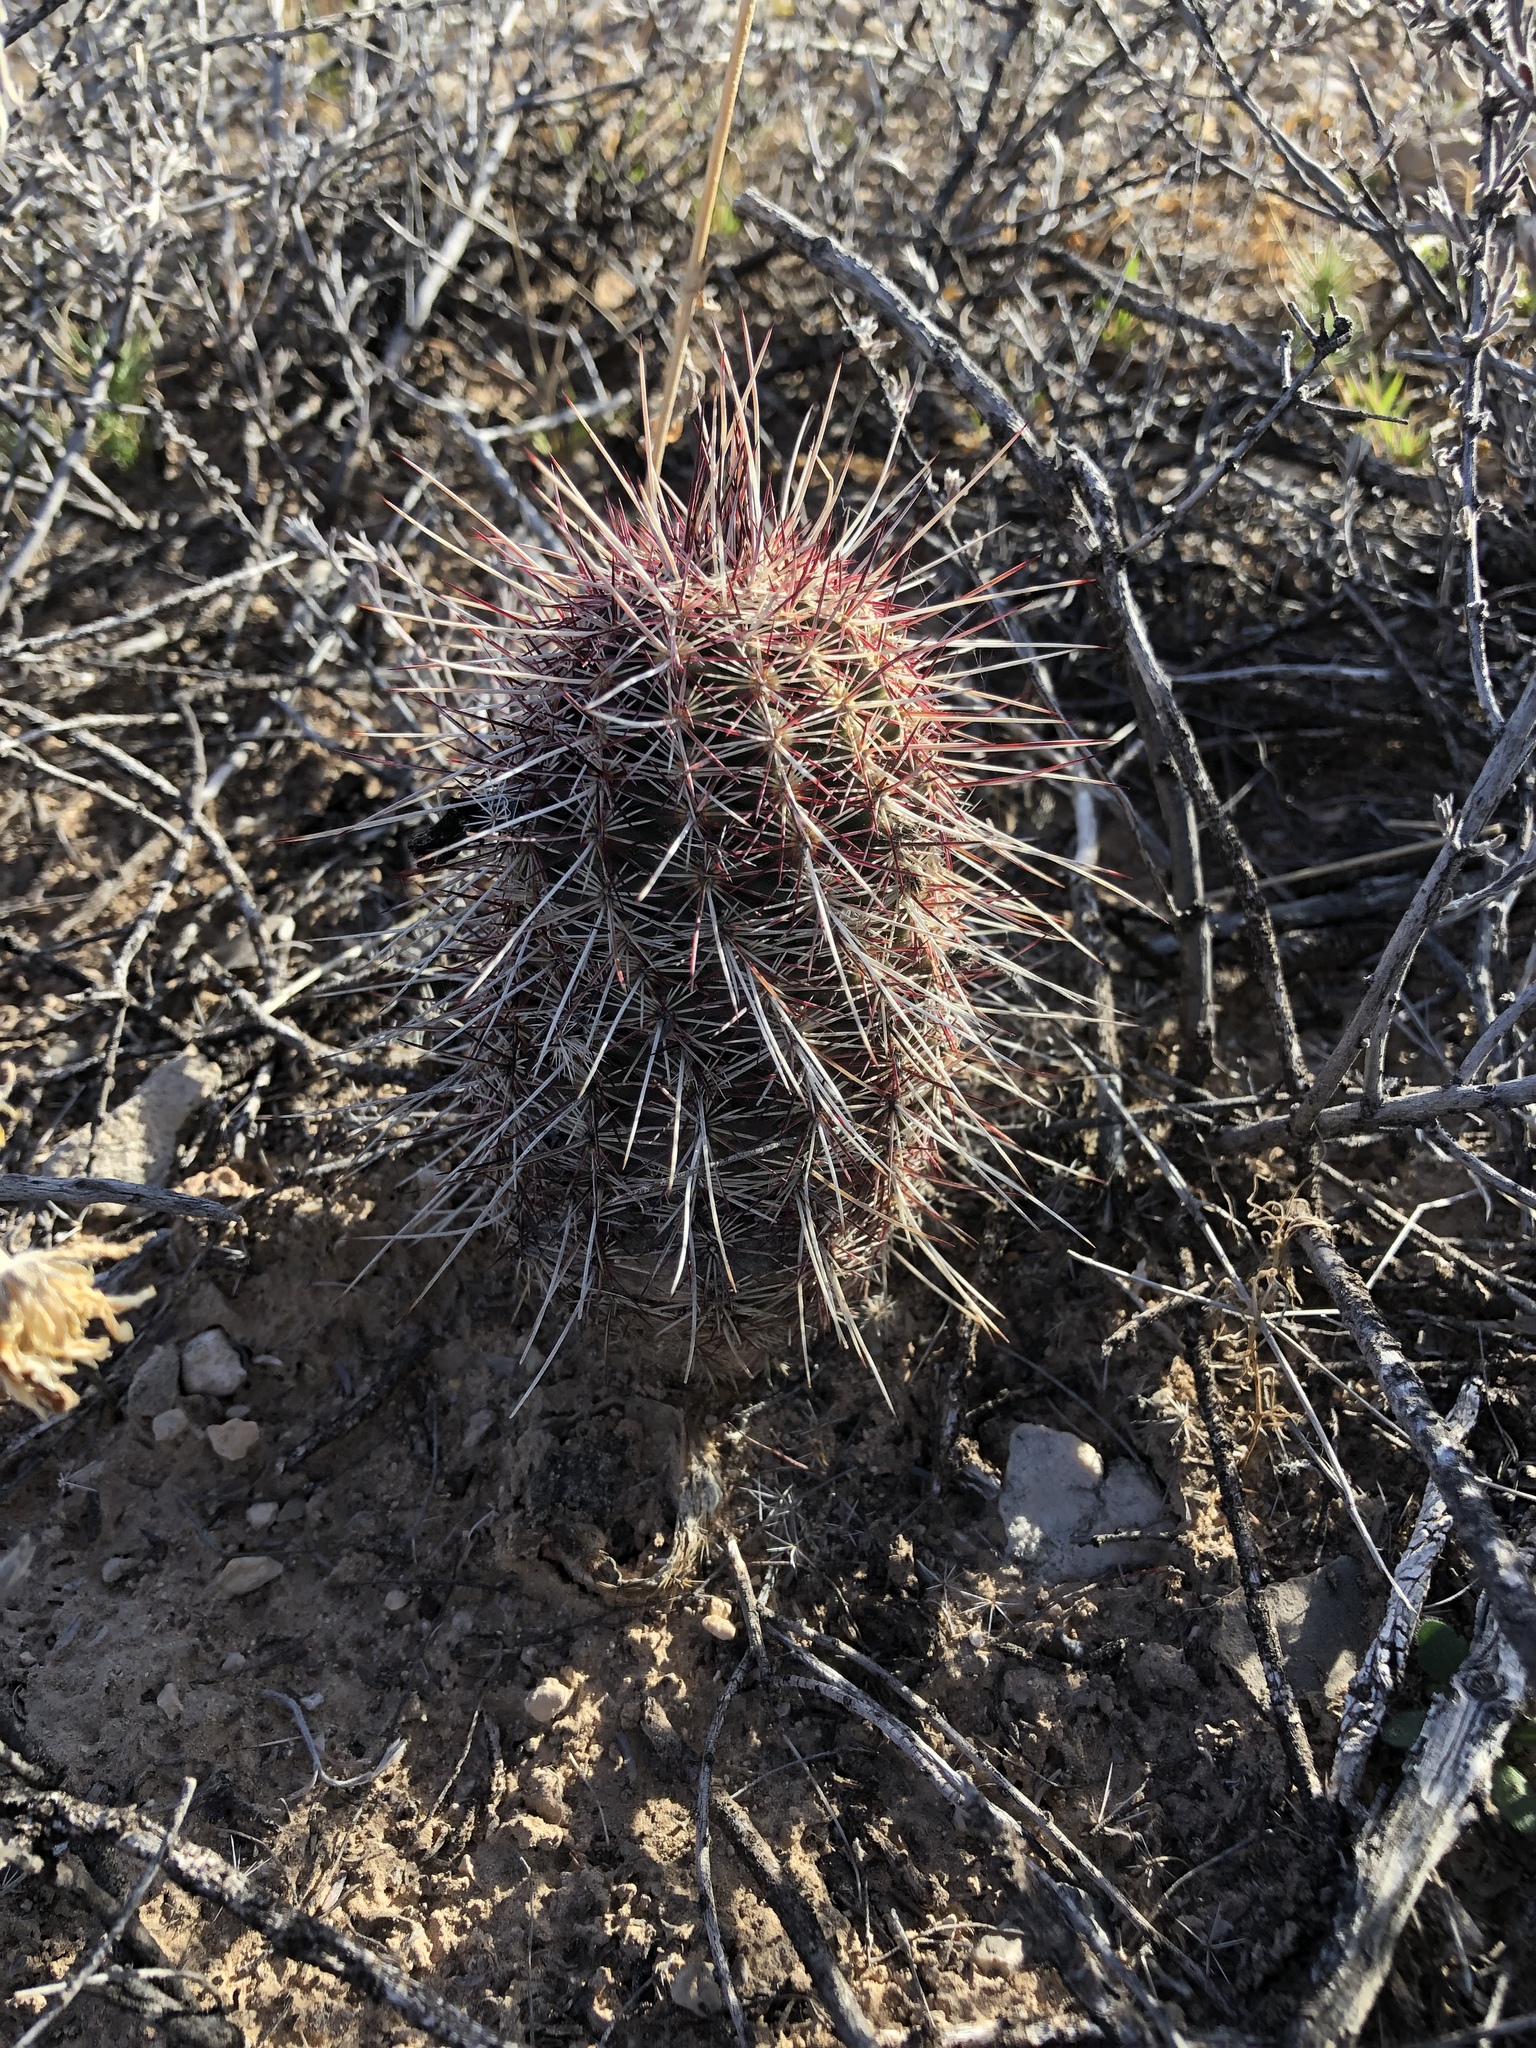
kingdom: Plantae
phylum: Tracheophyta
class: Magnoliopsida
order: Caryophyllales
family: Cactaceae
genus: Echinocereus
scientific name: Echinocereus viridiflorus
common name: Nylon hedgehog cactus
